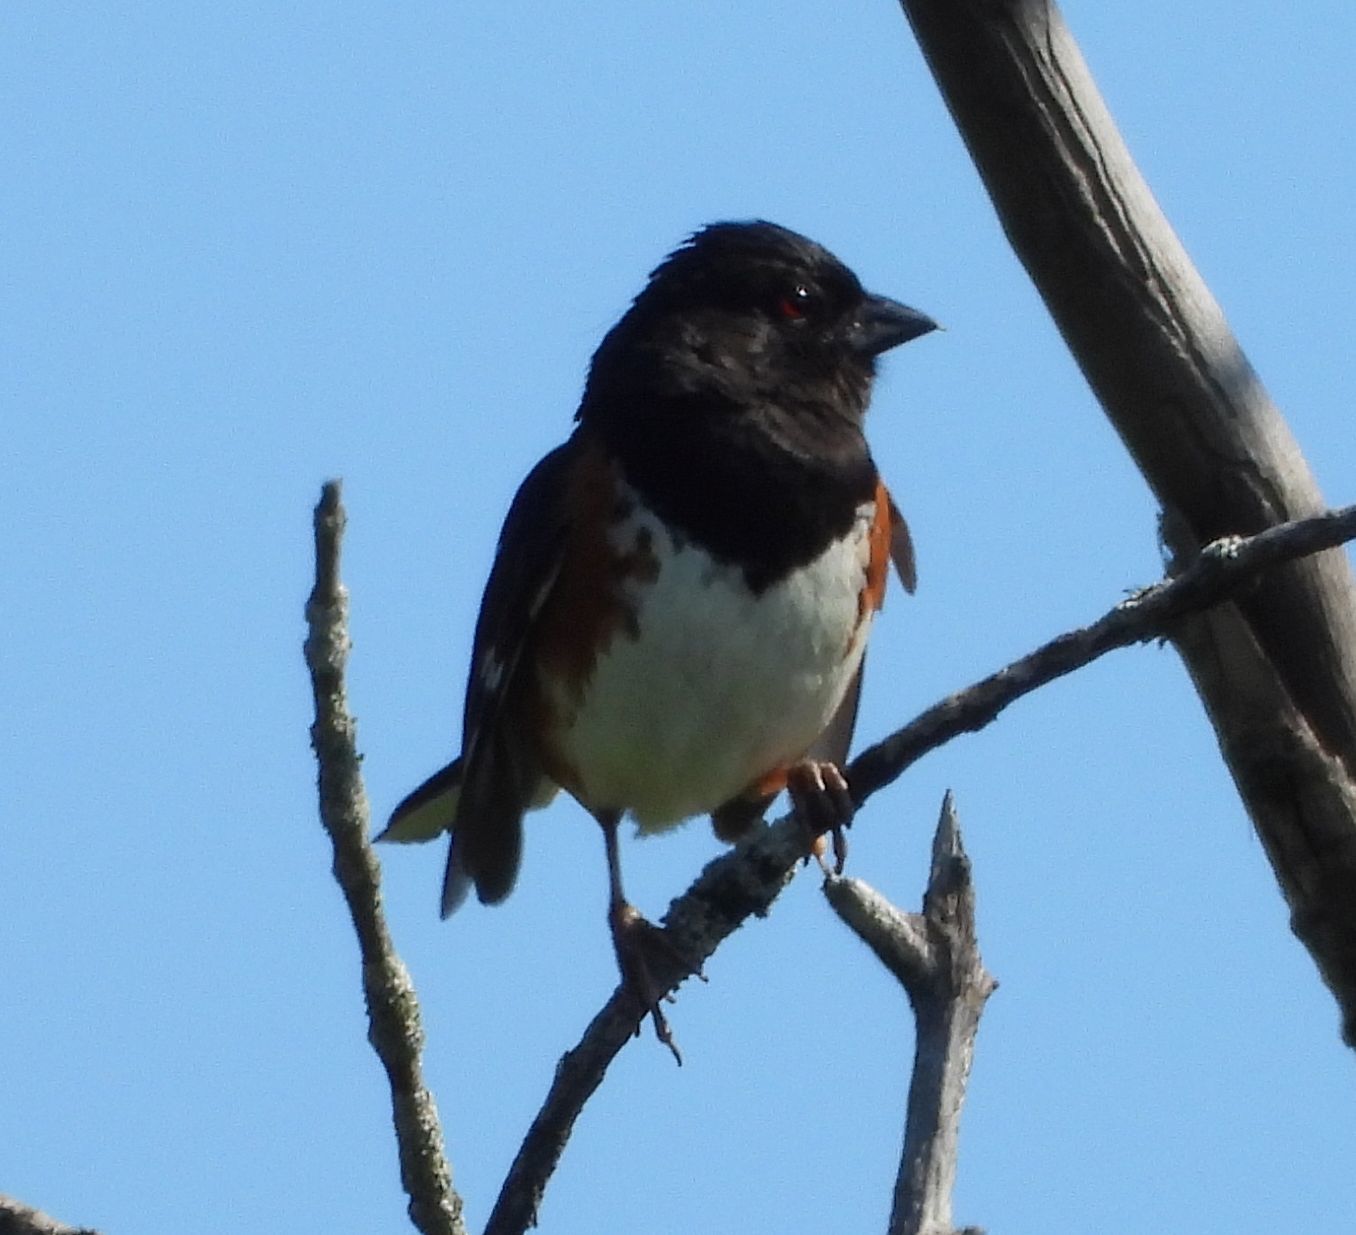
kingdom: Animalia
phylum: Chordata
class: Aves
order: Passeriformes
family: Passerellidae
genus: Pipilo
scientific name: Pipilo erythrophthalmus
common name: Eastern towhee
